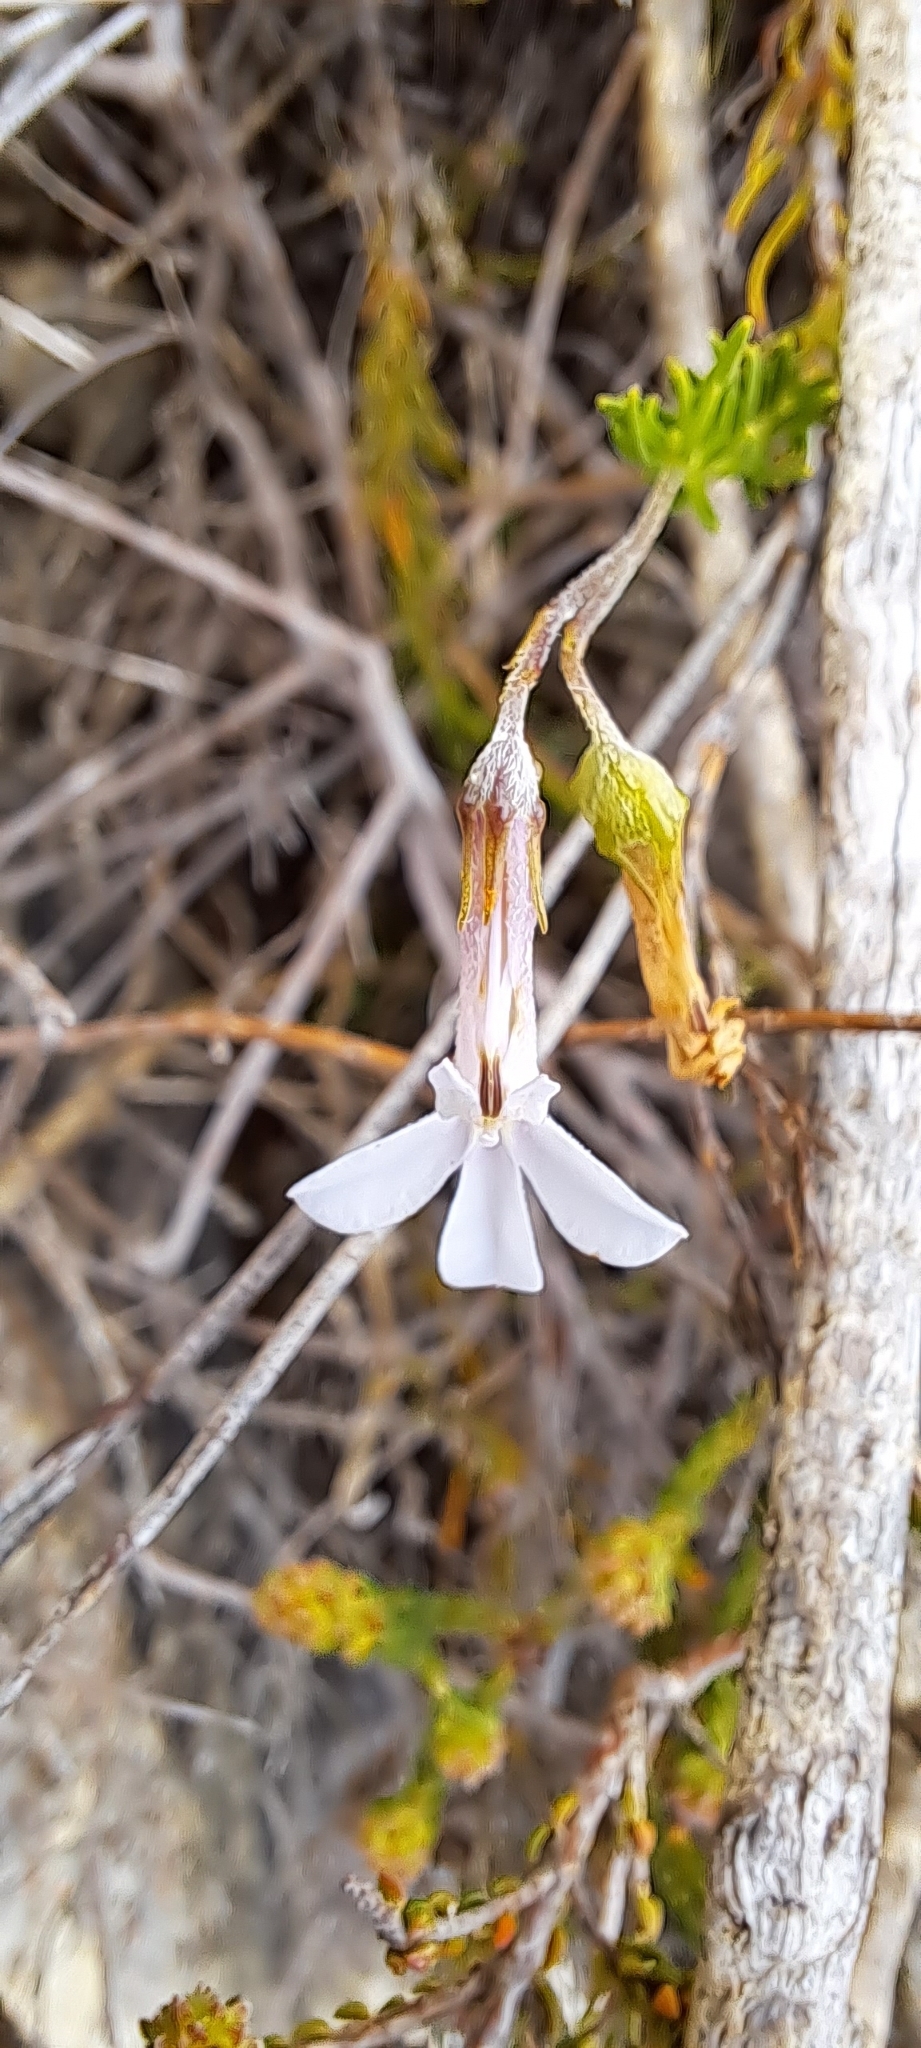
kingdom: Plantae
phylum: Tracheophyta
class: Magnoliopsida
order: Asterales
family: Campanulaceae
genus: Lobelia
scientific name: Lobelia pinifolia
